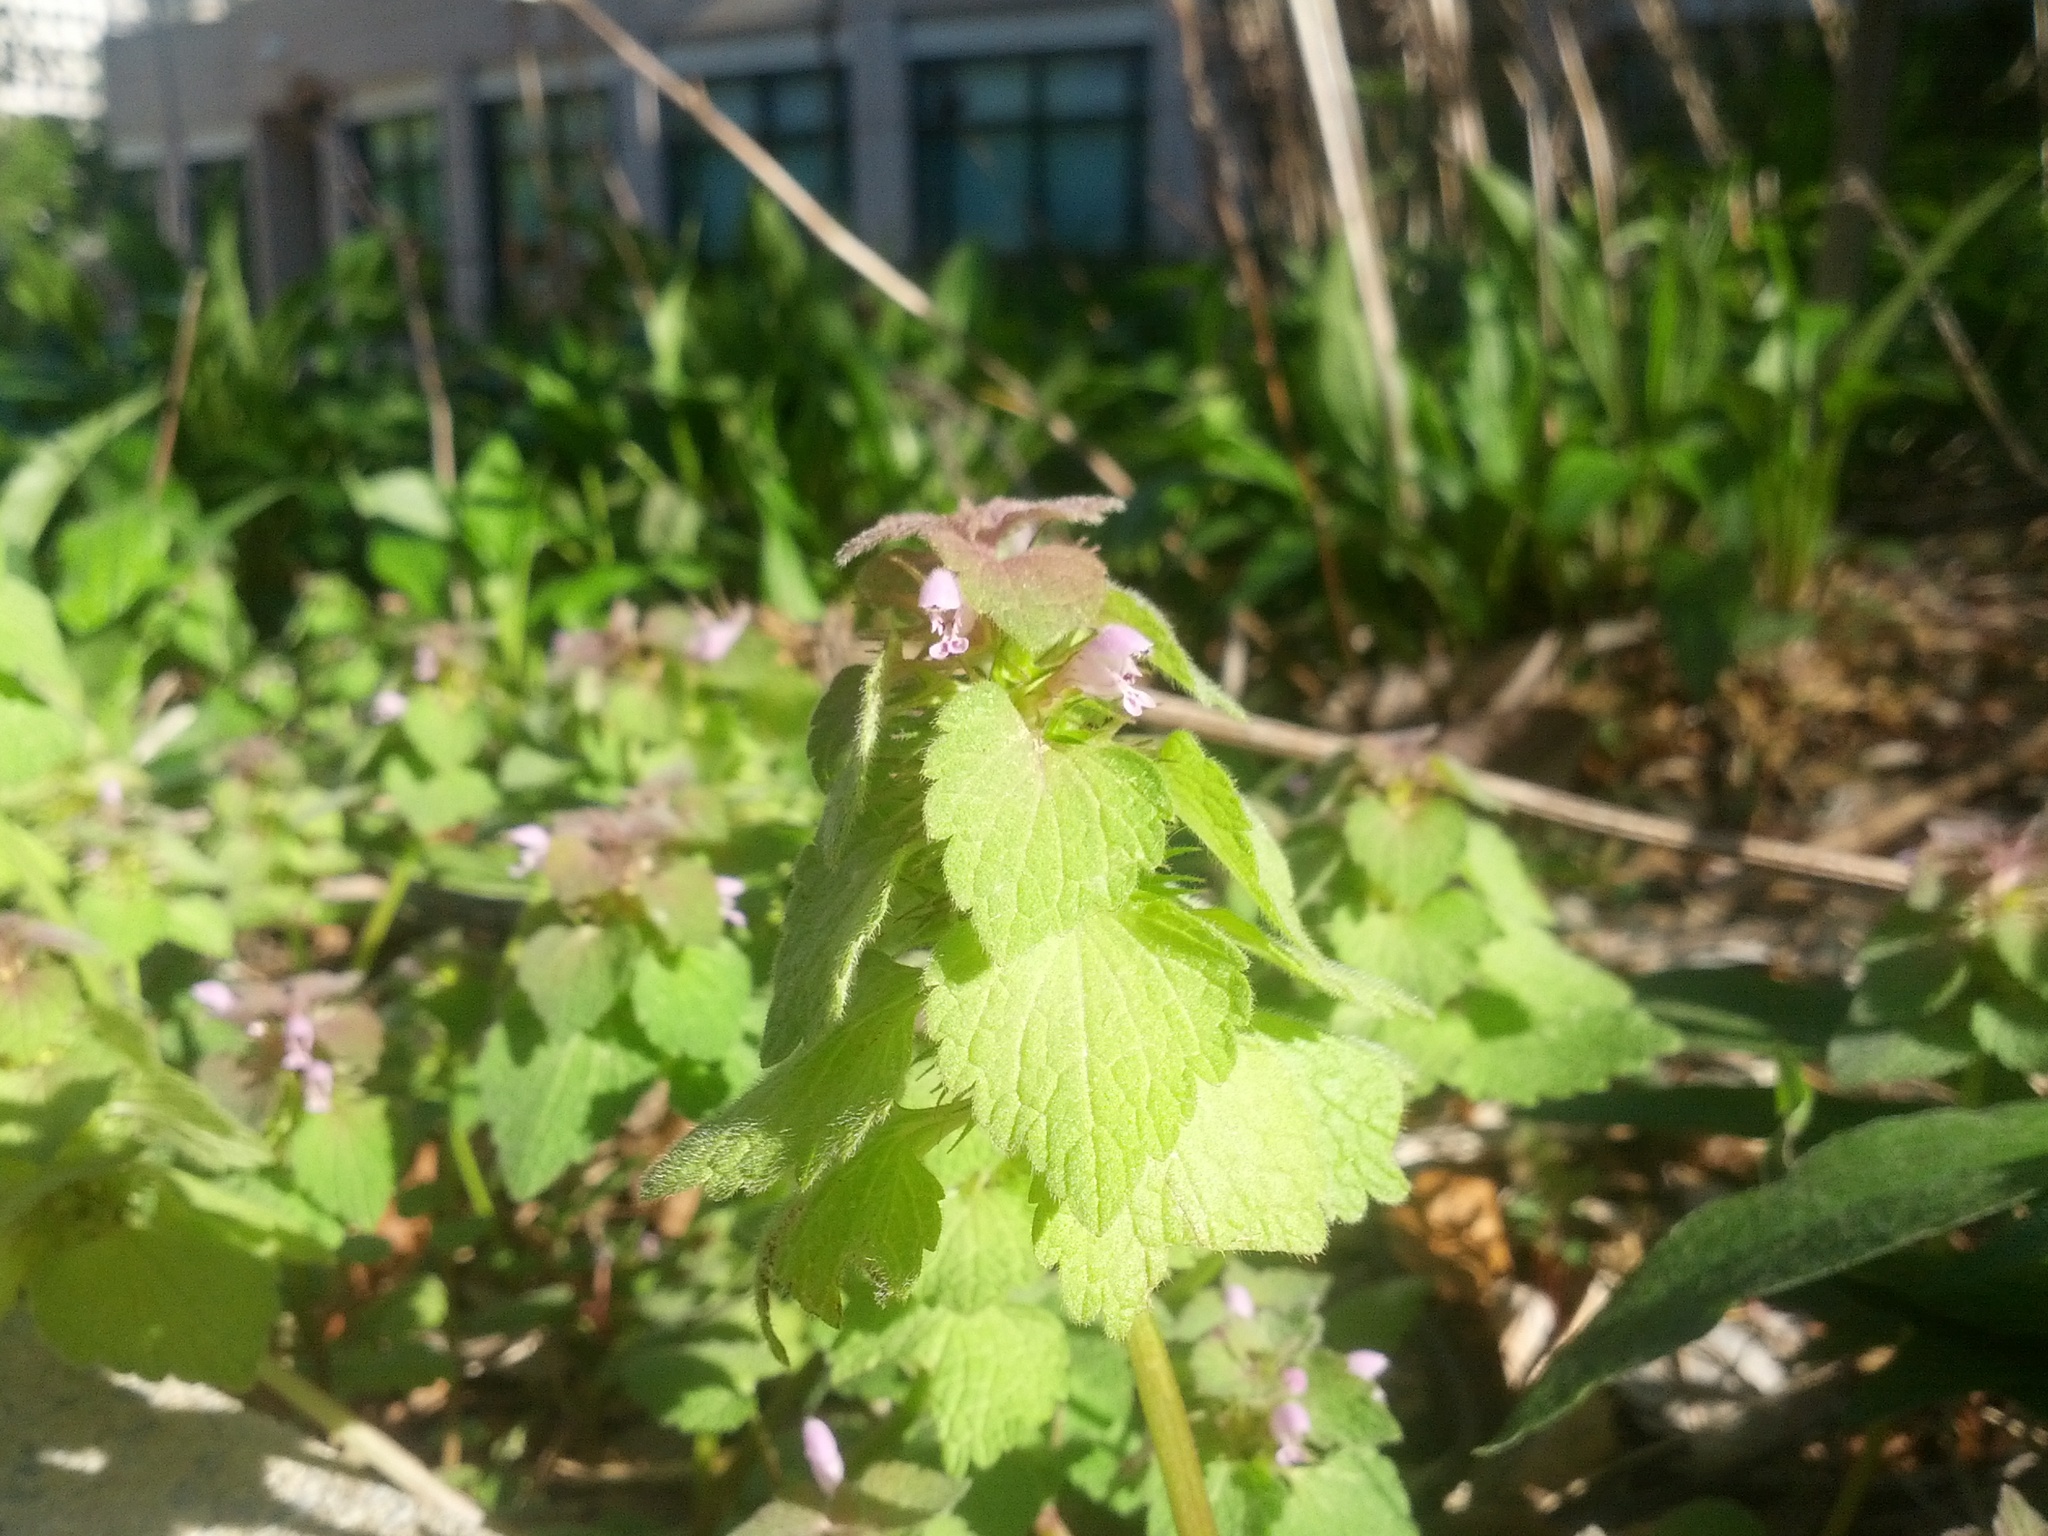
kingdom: Plantae
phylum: Tracheophyta
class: Magnoliopsida
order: Lamiales
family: Lamiaceae
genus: Lamium
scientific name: Lamium purpureum
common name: Red dead-nettle
